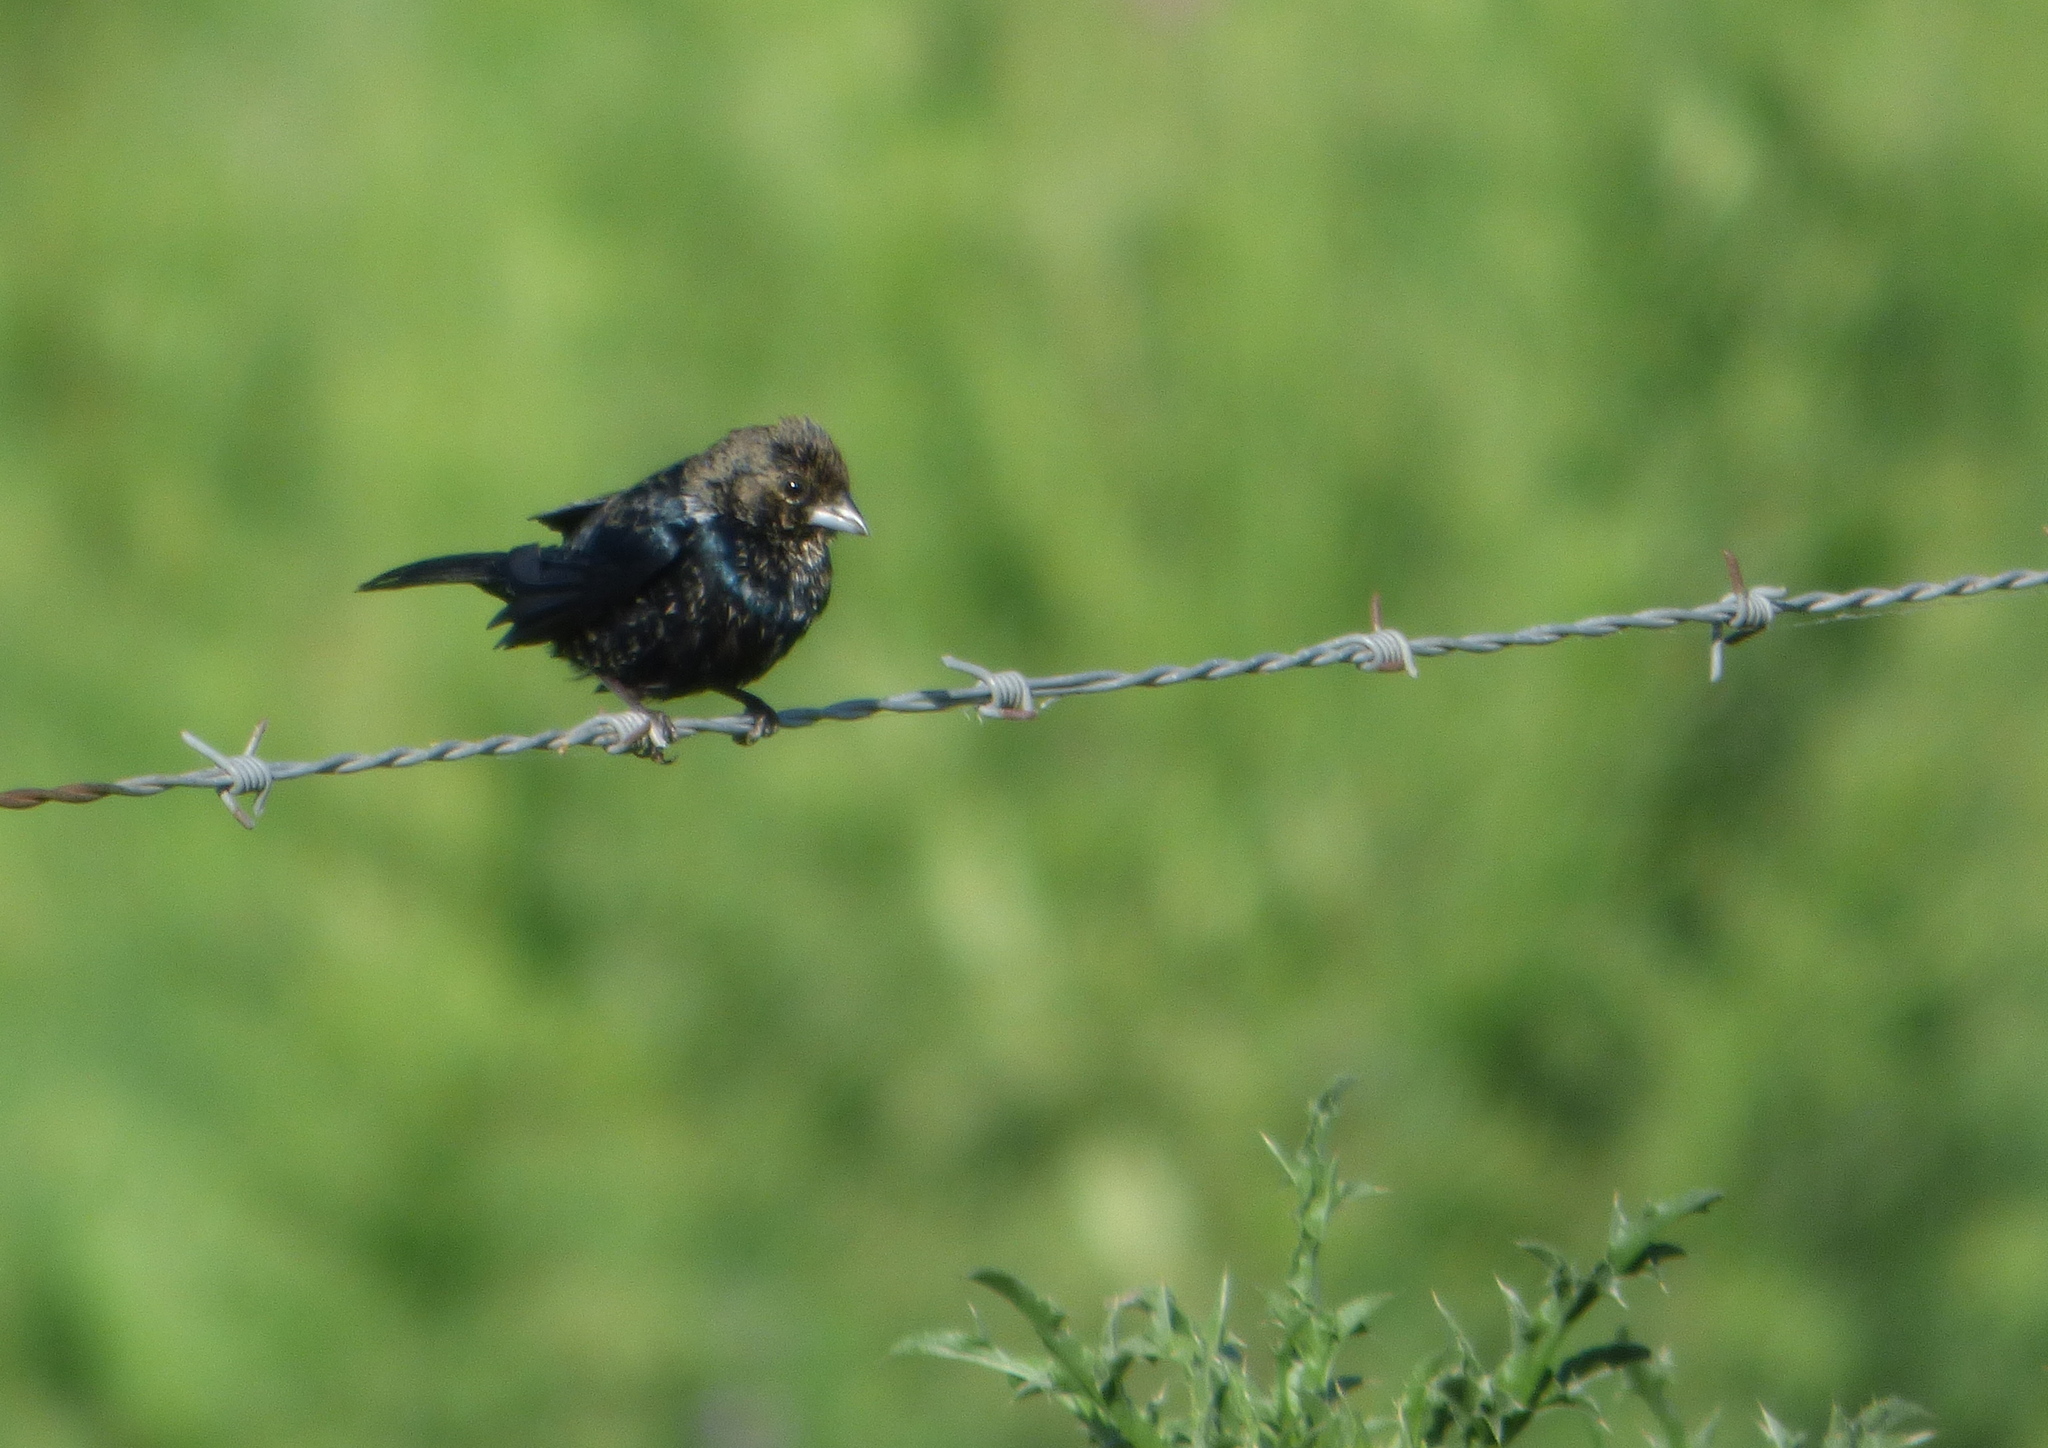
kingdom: Animalia
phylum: Chordata
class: Aves
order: Passeriformes
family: Thraupidae
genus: Volatinia
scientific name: Volatinia jacarina
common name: Blue-black grassquit
